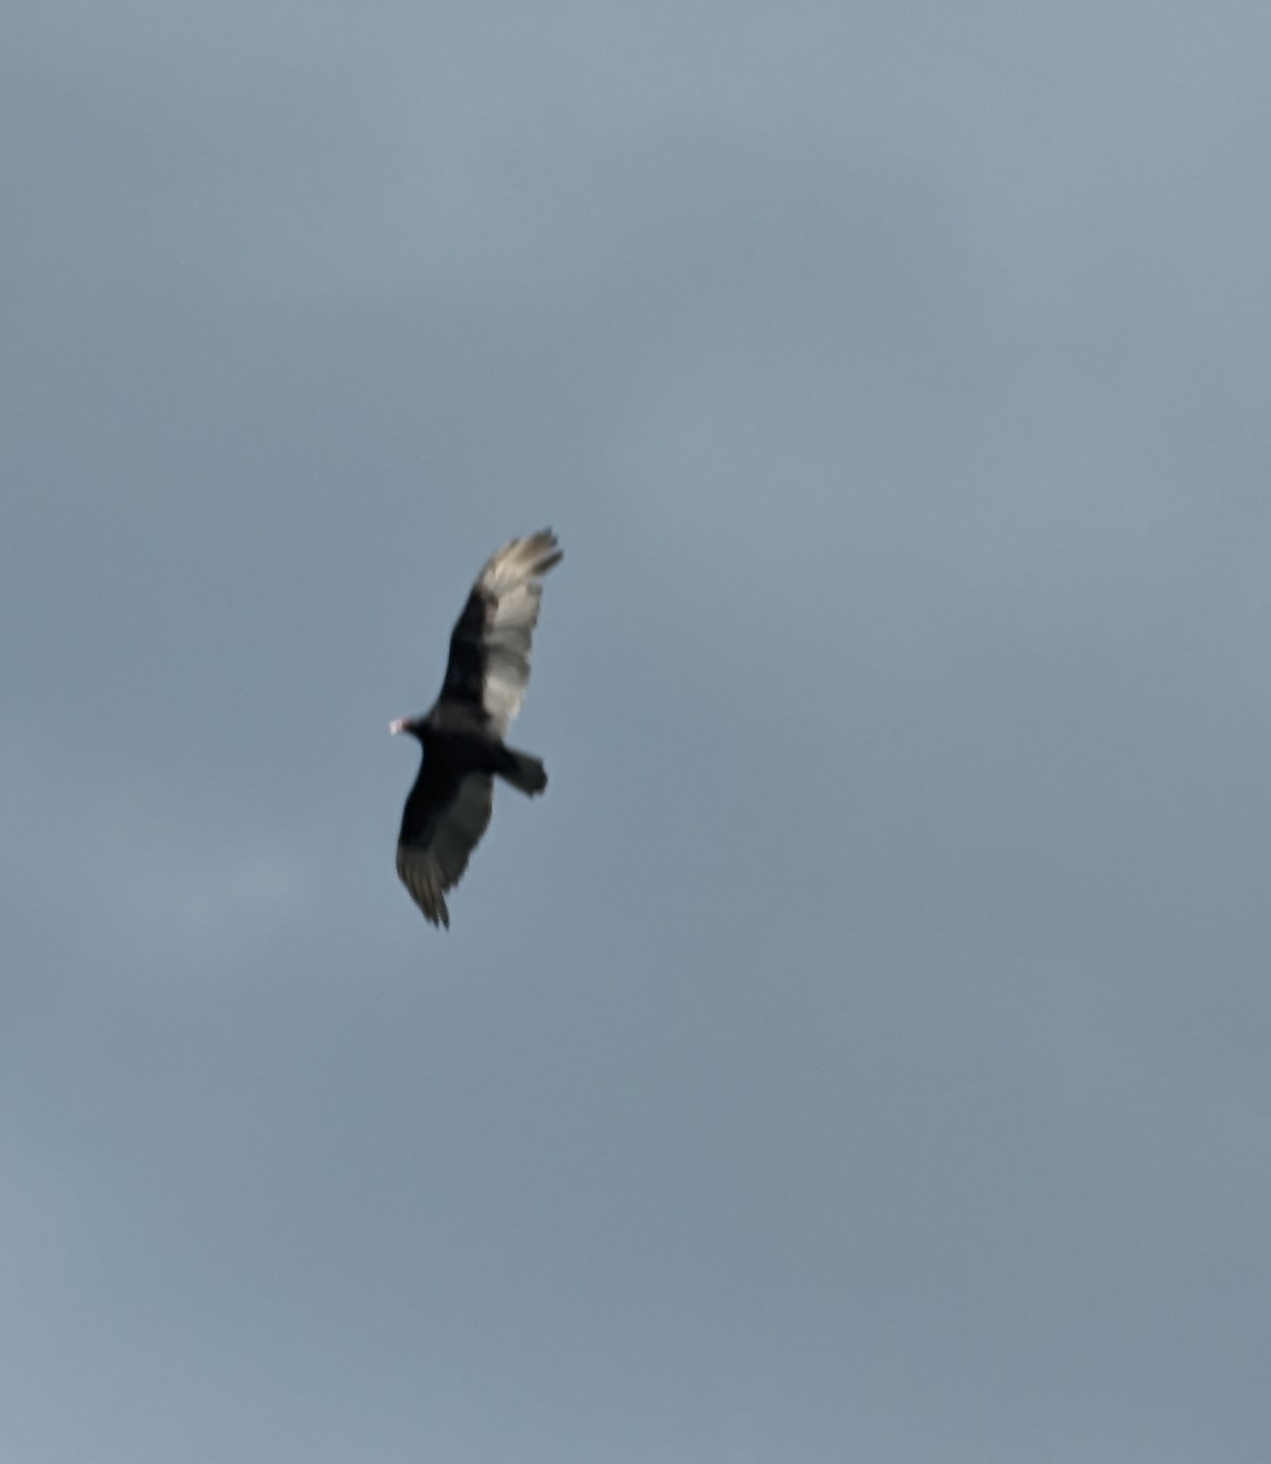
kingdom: Animalia
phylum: Chordata
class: Aves
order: Accipitriformes
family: Cathartidae
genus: Cathartes
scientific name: Cathartes aura
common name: Turkey vulture
